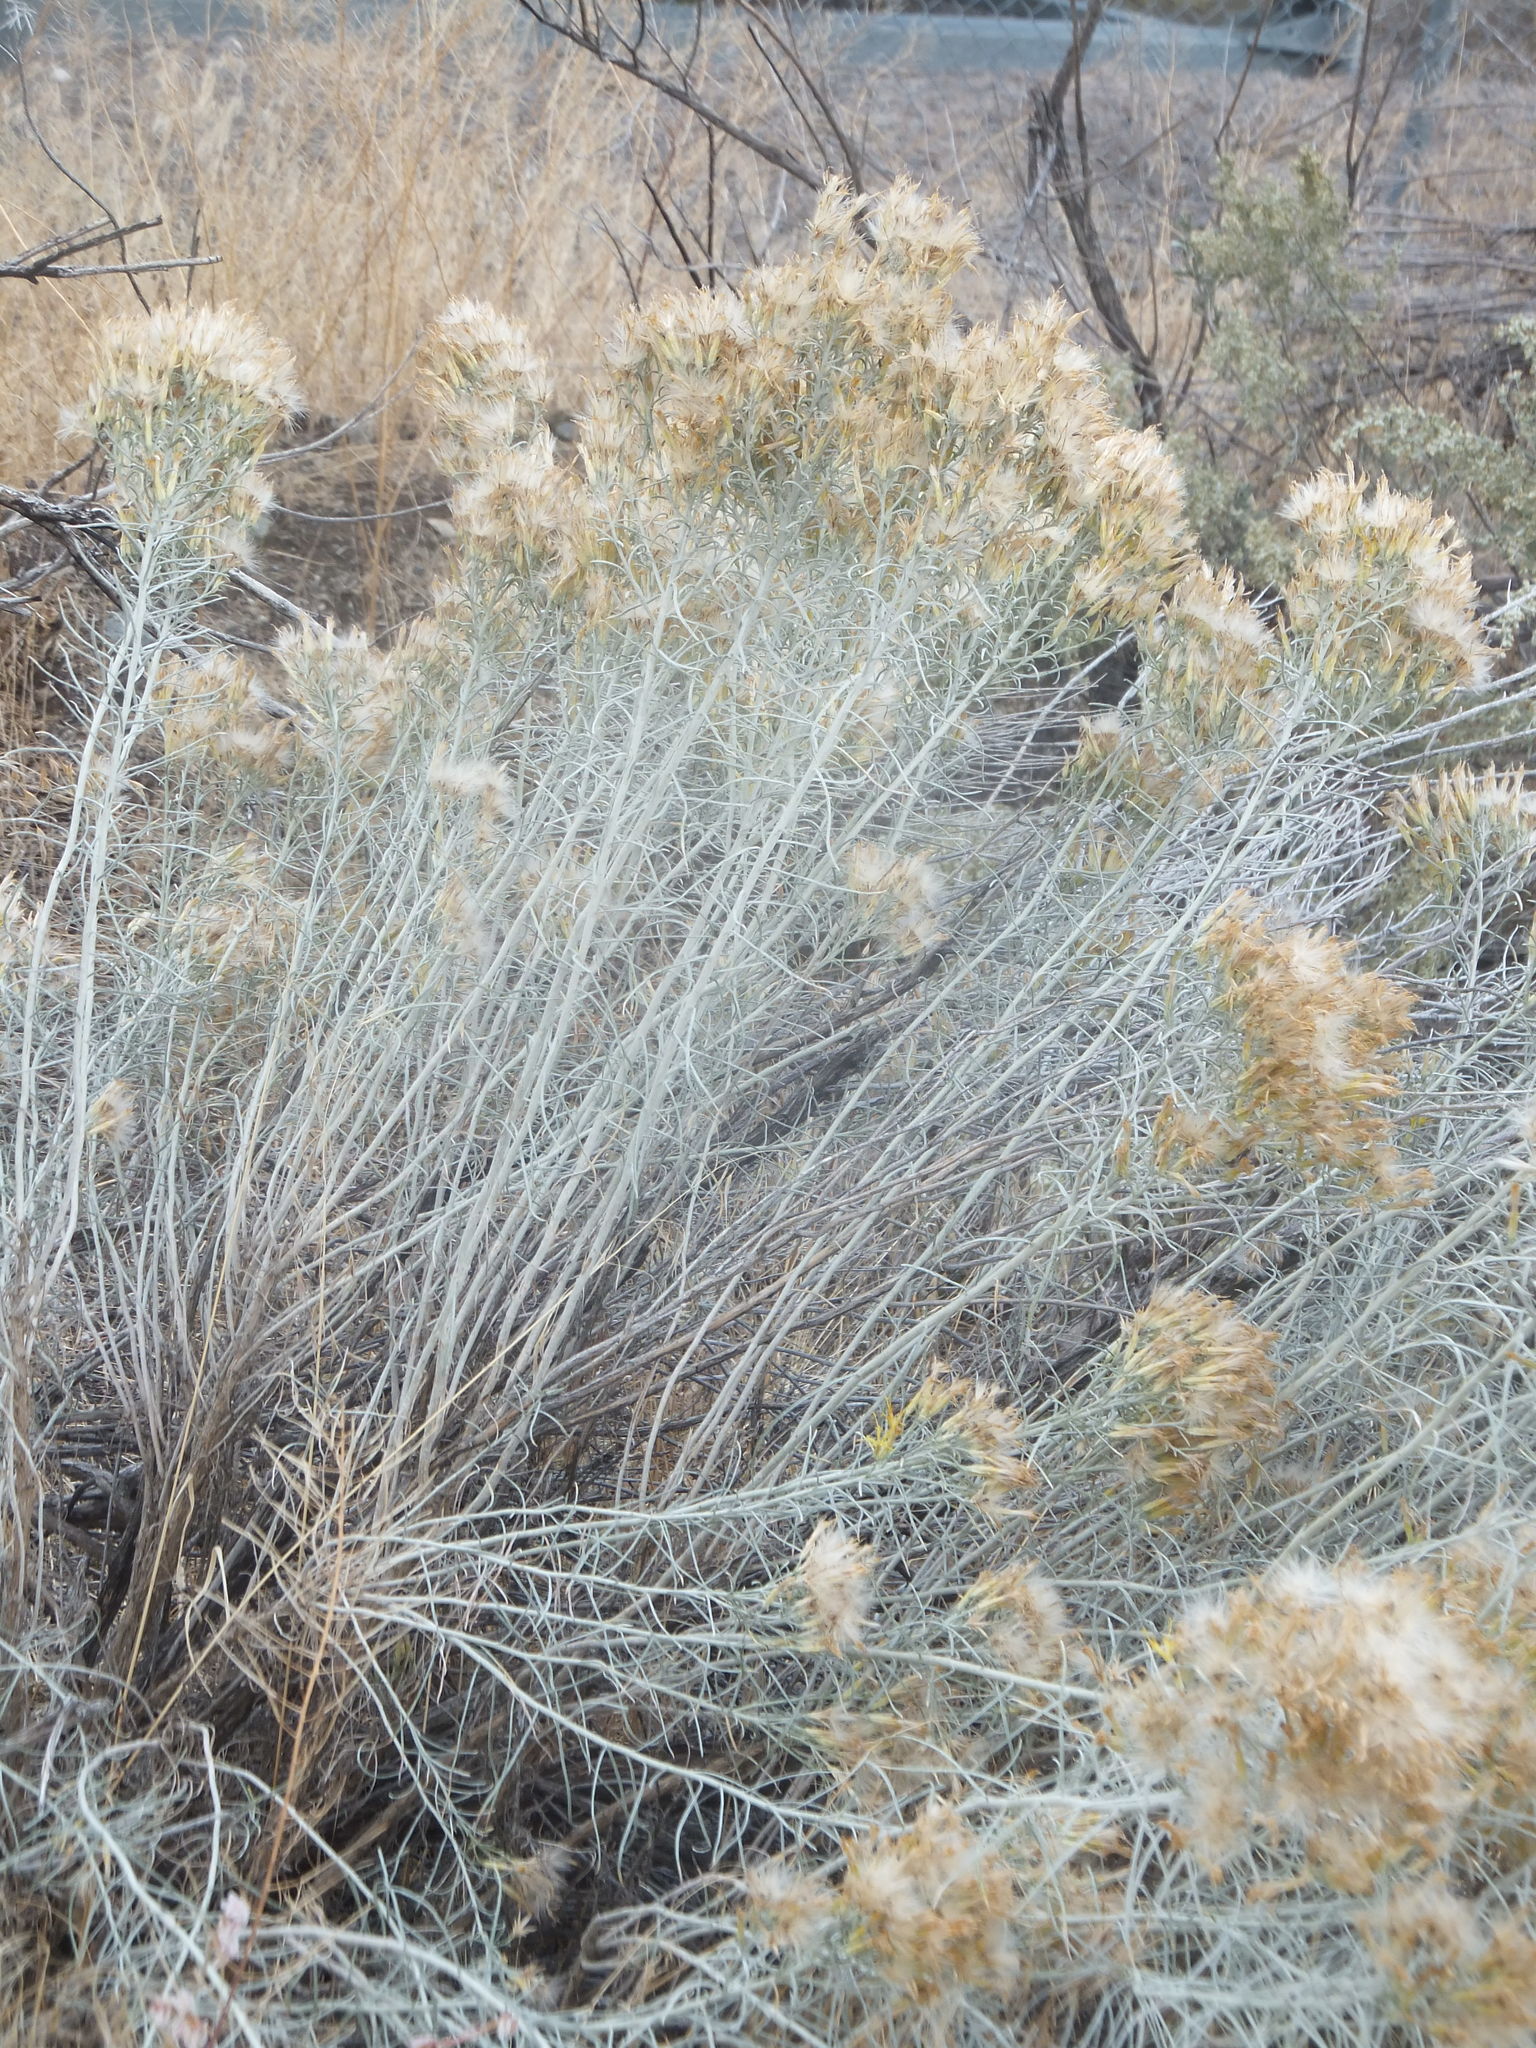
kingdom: Plantae
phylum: Tracheophyta
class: Magnoliopsida
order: Asterales
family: Asteraceae
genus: Ericameria
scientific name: Ericameria nauseosa
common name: Rubber rabbitbrush
